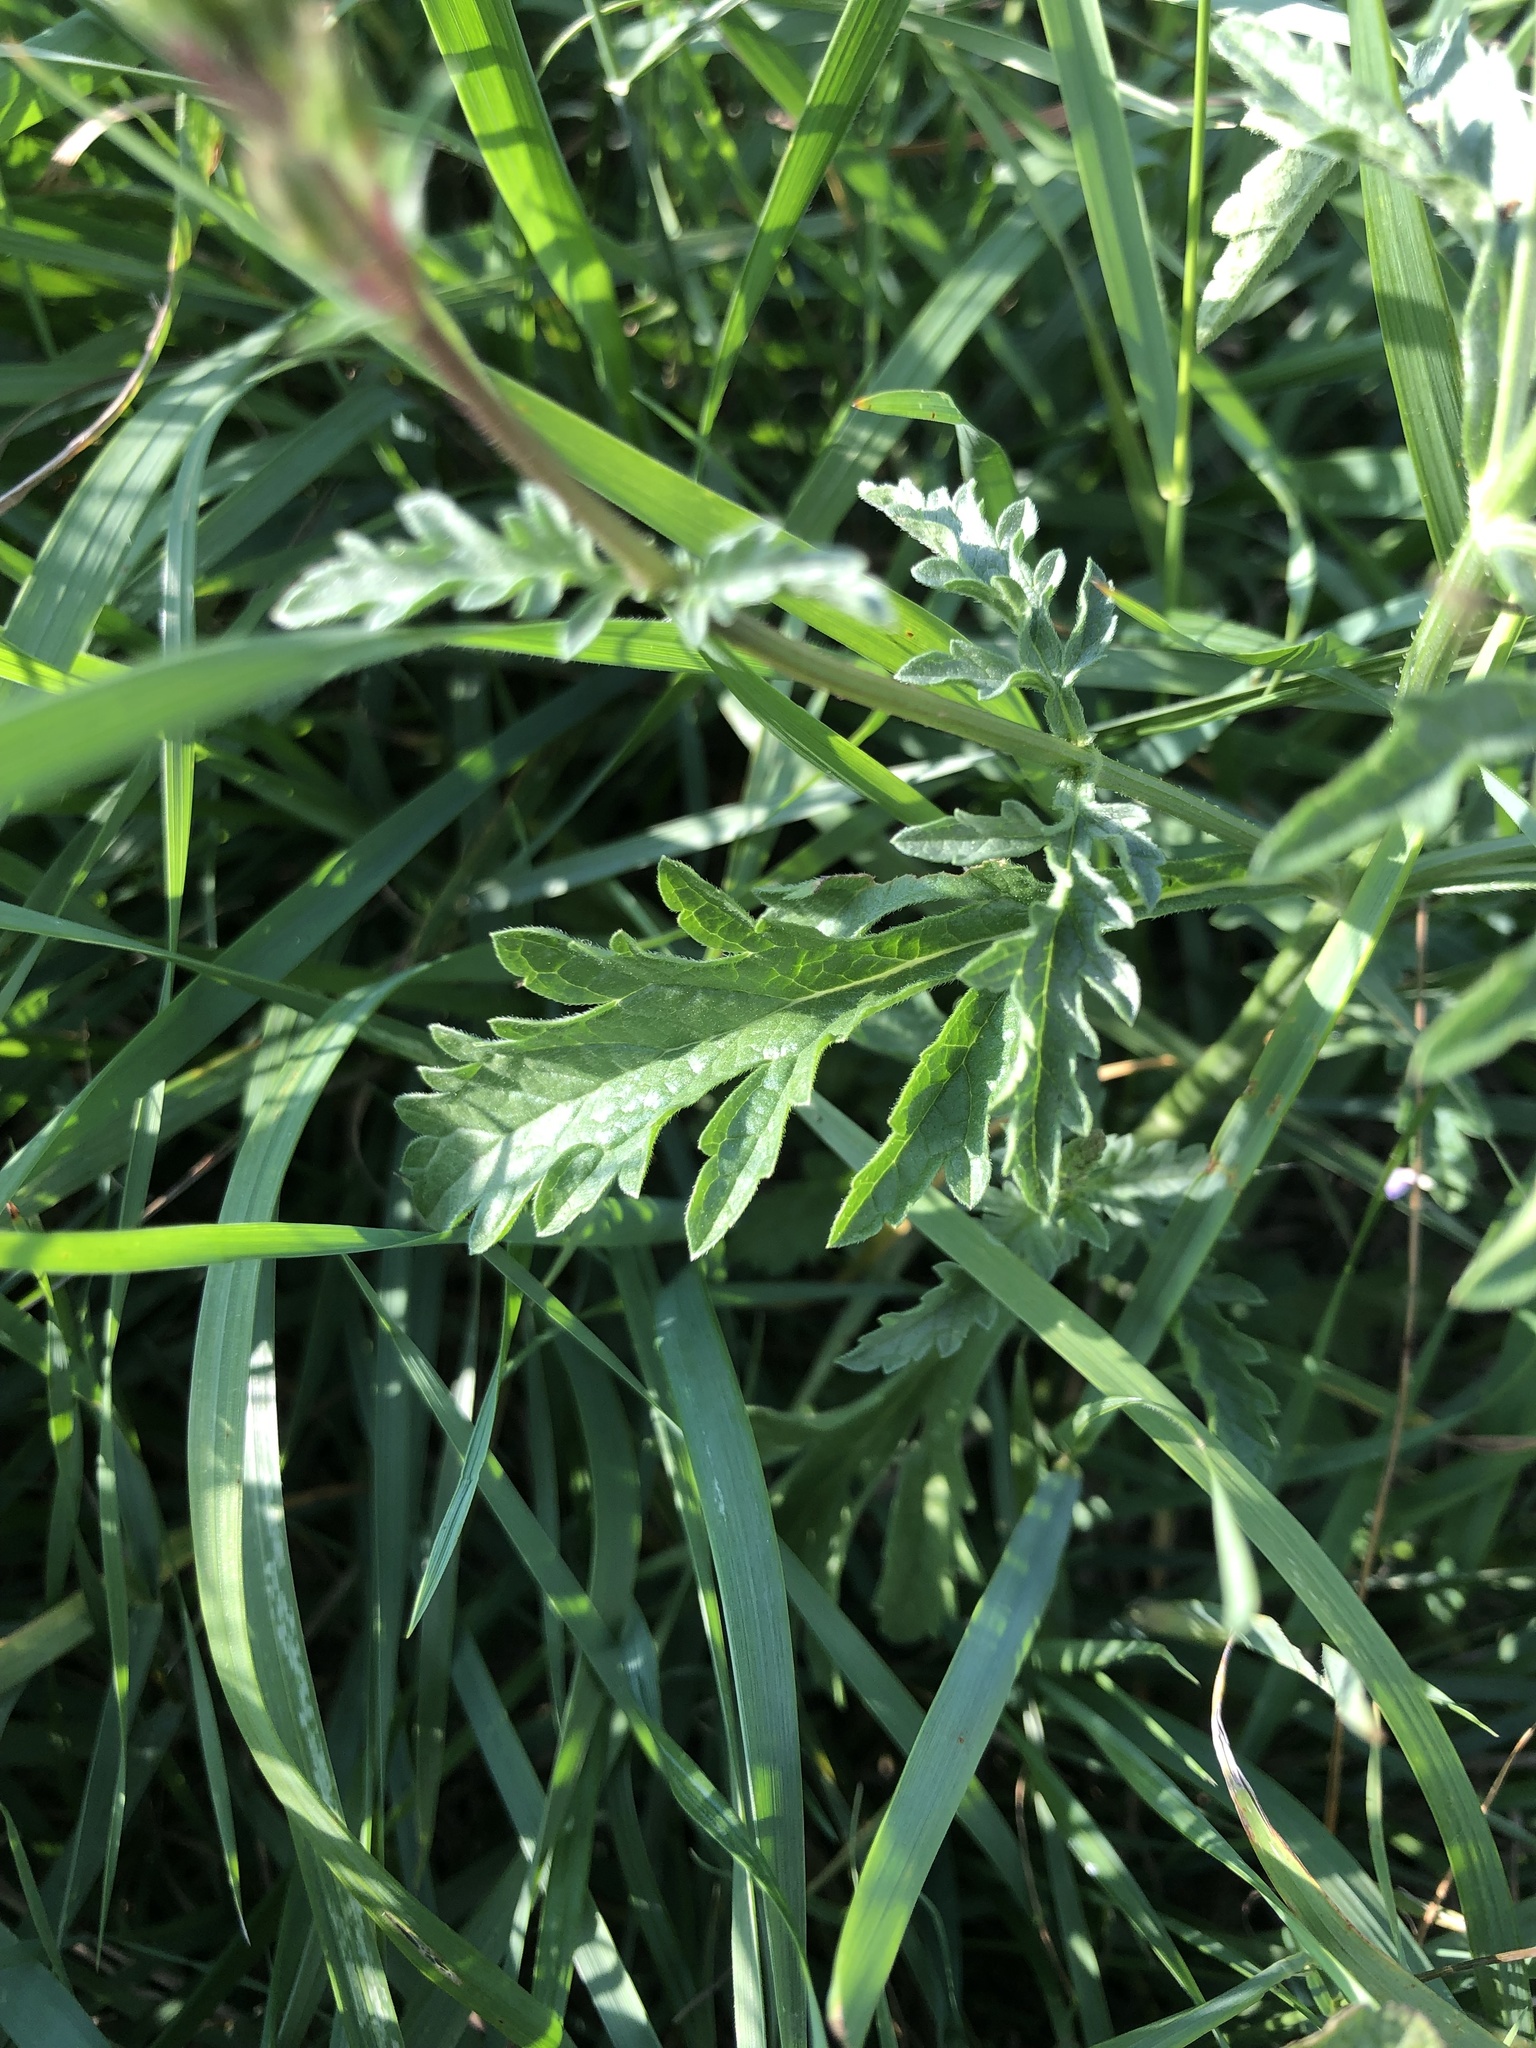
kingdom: Plantae
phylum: Tracheophyta
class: Magnoliopsida
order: Lamiales
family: Verbenaceae
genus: Verbena
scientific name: Verbena officinalis
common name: Vervain
